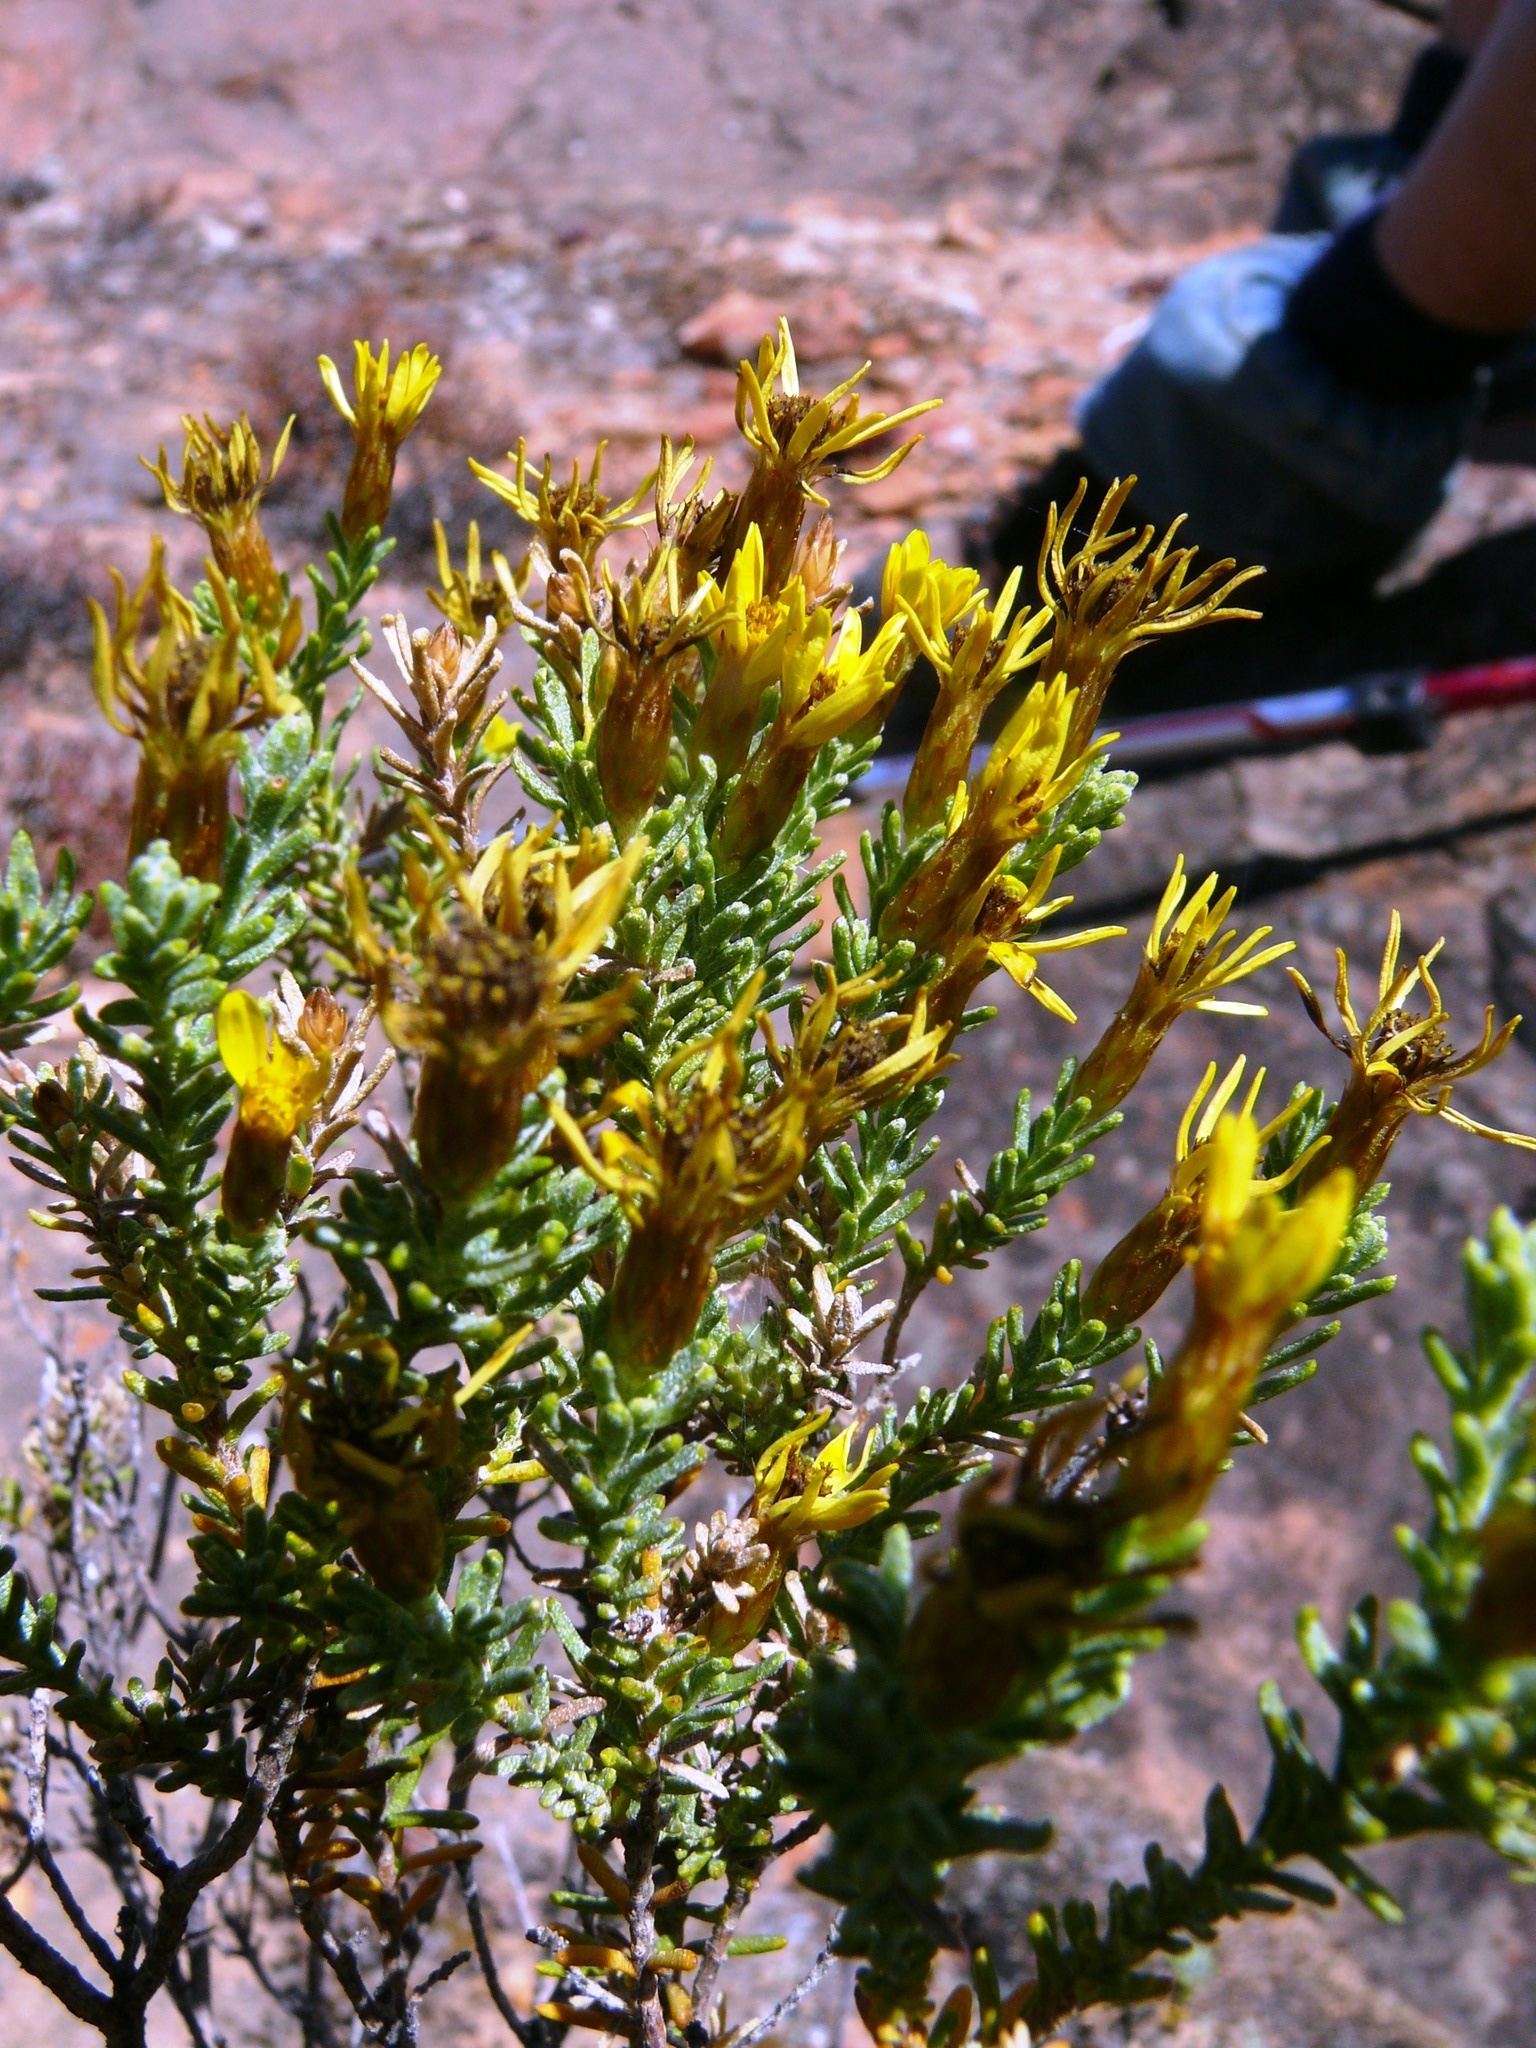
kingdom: Plantae
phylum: Tracheophyta
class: Magnoliopsida
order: Asterales
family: Asteraceae
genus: Oedera
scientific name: Oedera sedifolia
